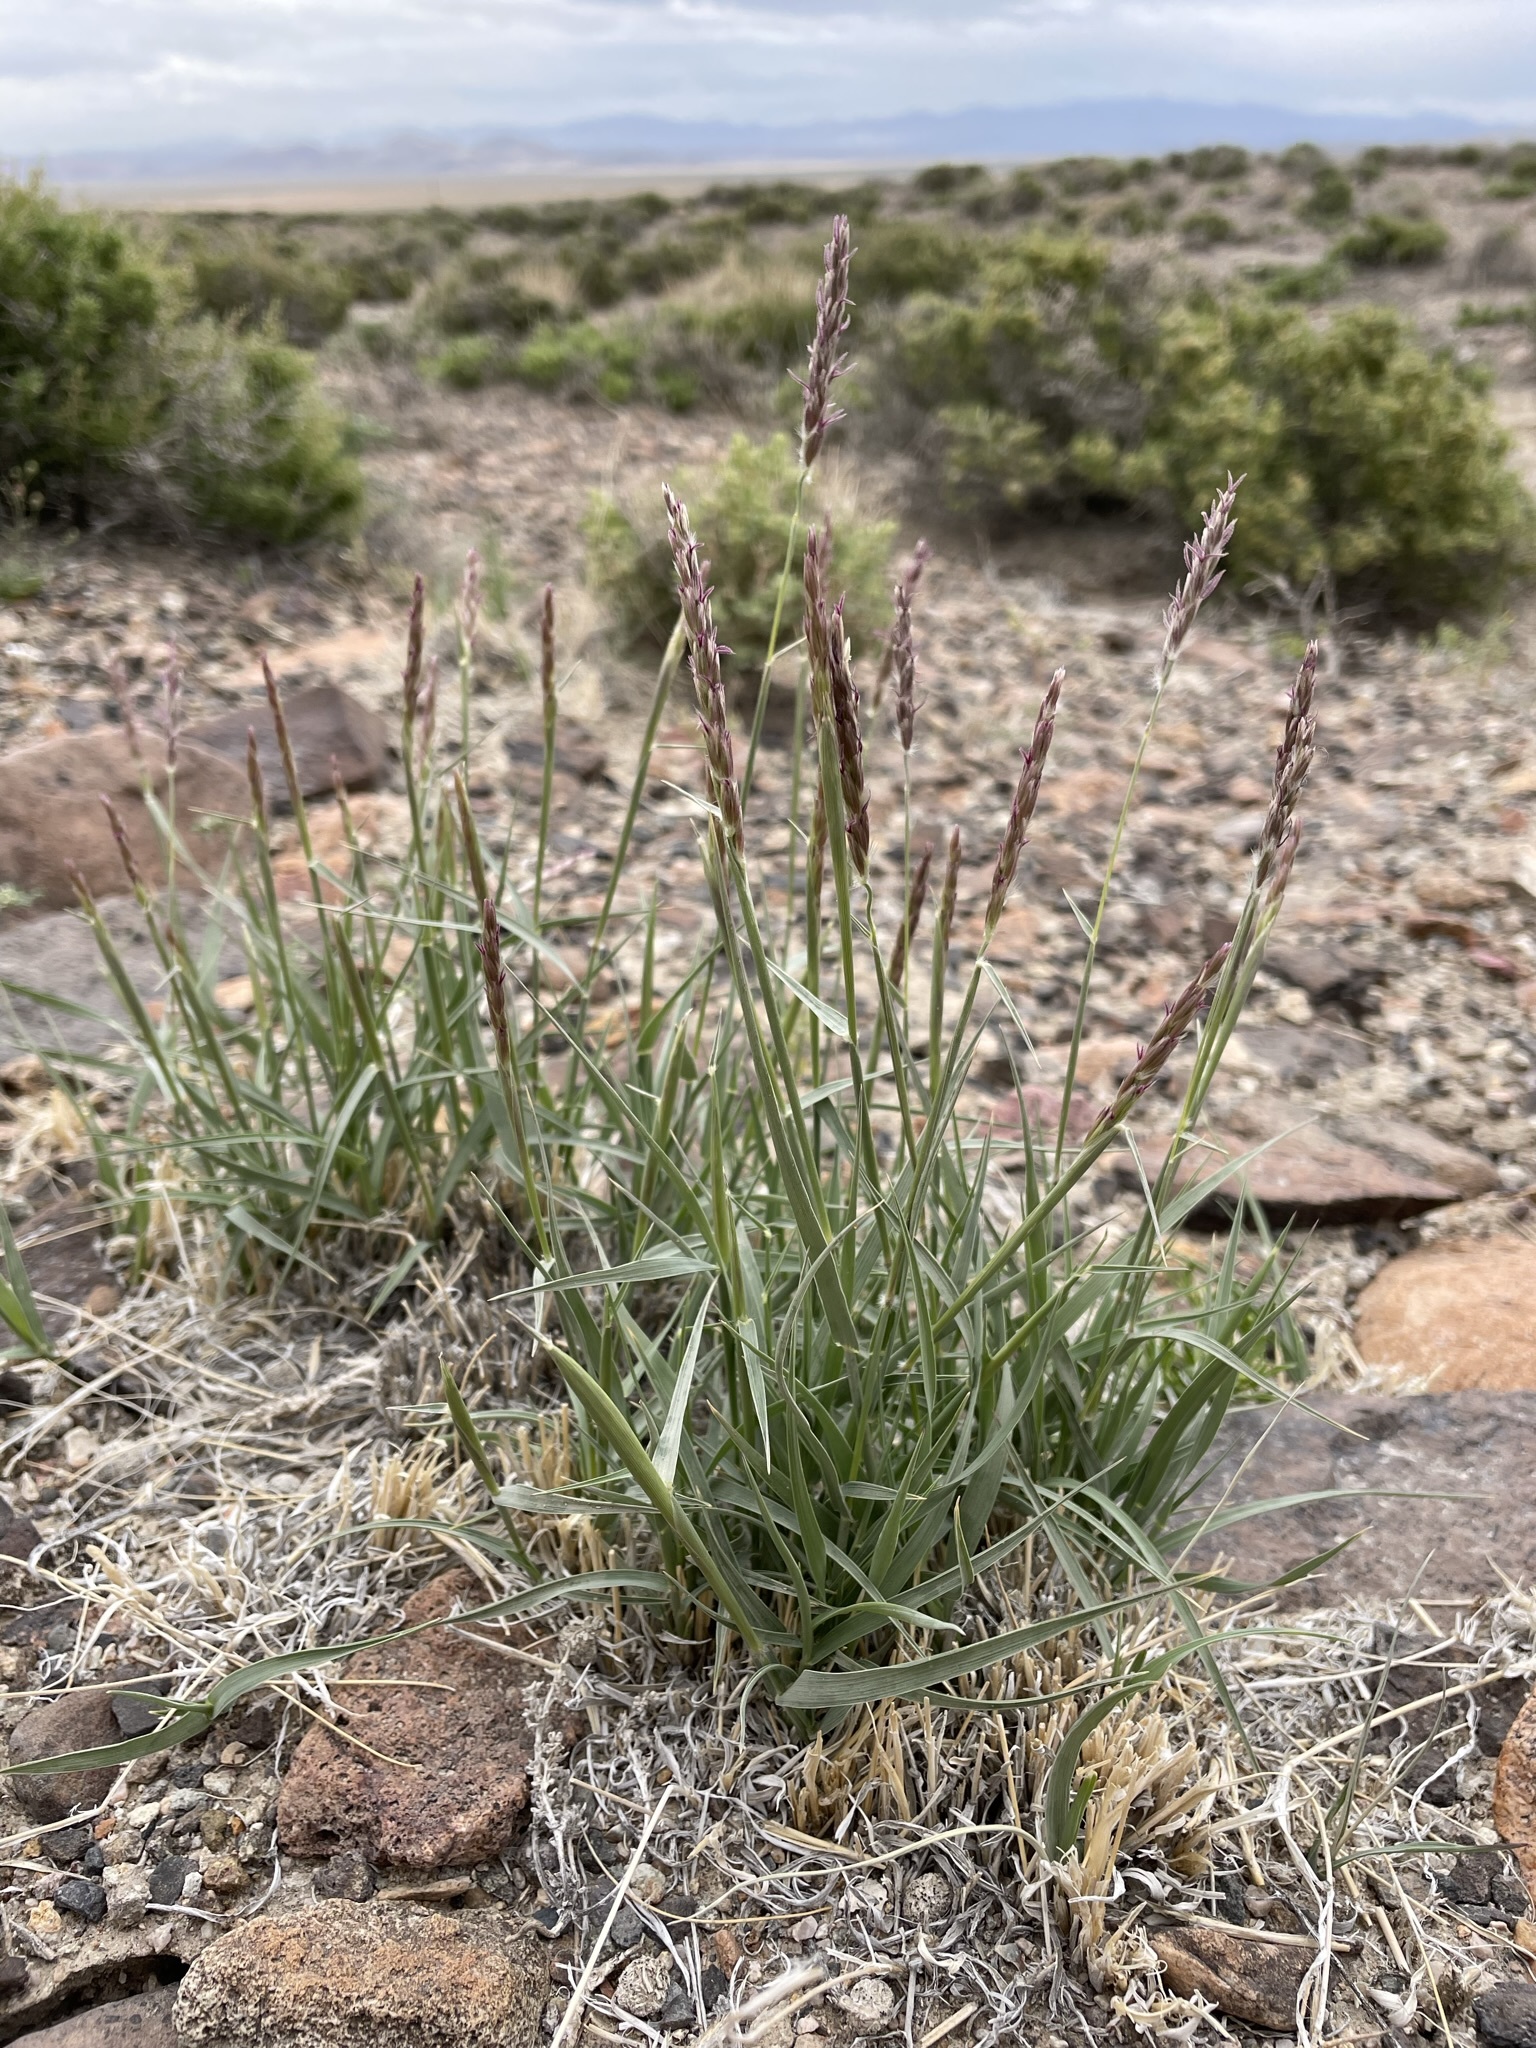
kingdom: Plantae
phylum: Tracheophyta
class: Liliopsida
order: Poales
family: Poaceae
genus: Hilaria
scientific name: Hilaria jamesii
